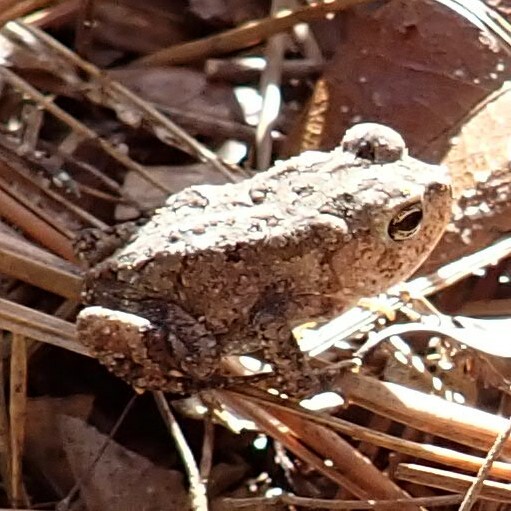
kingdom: Animalia
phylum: Chordata
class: Amphibia
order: Anura
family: Bufonidae
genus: Anaxyrus
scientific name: Anaxyrus terrestris
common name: Southern toad
